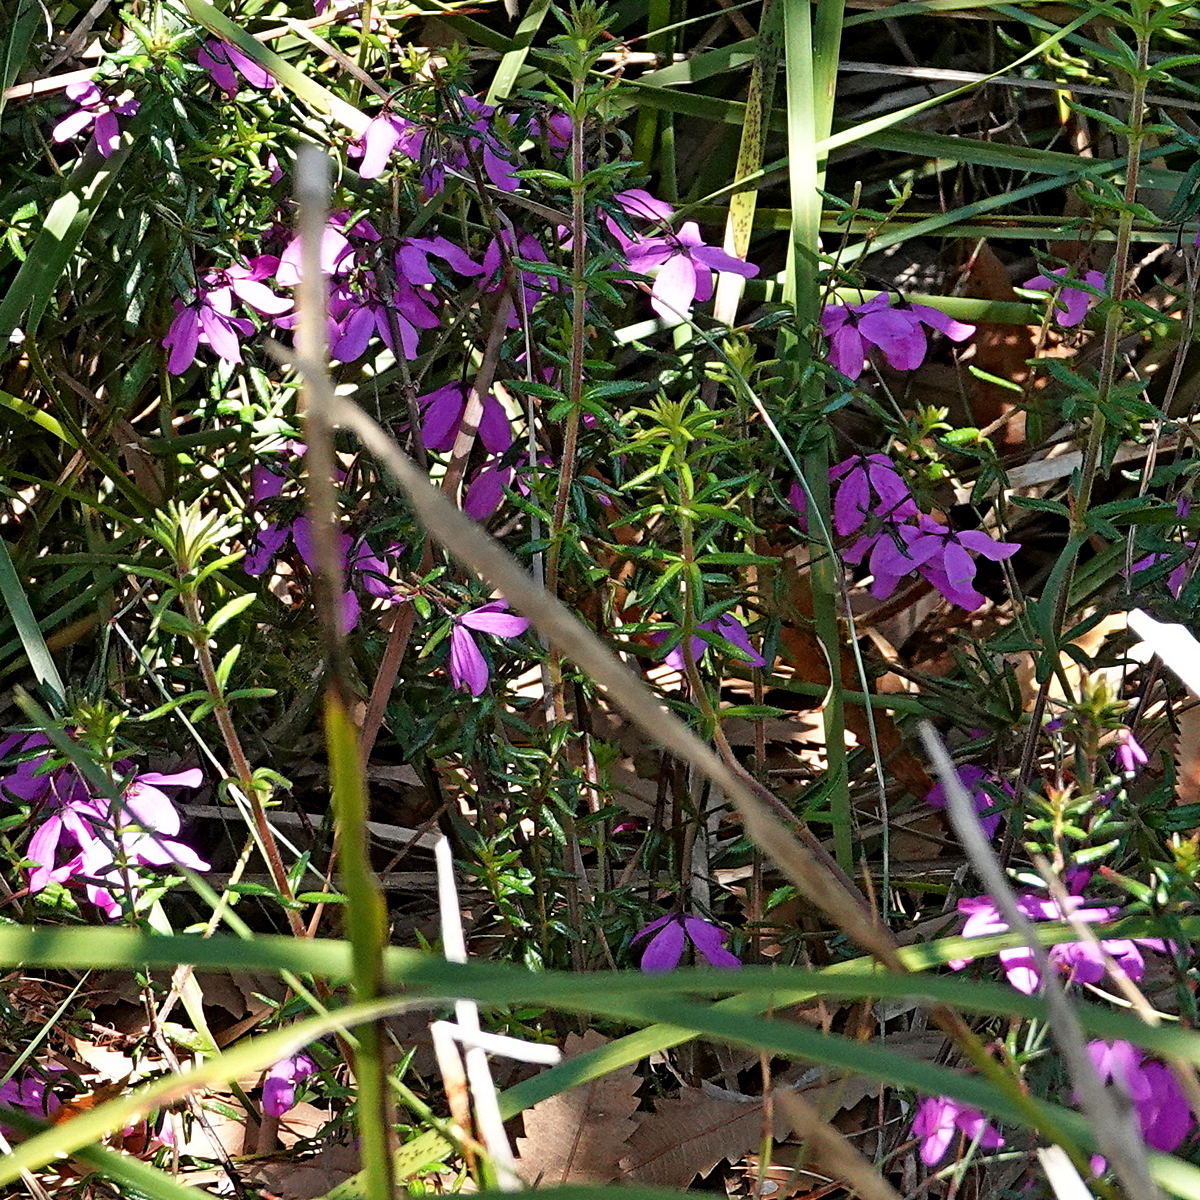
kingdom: Plantae
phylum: Tracheophyta
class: Magnoliopsida
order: Oxalidales
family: Elaeocarpaceae
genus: Tetratheca
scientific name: Tetratheca thymifolia
